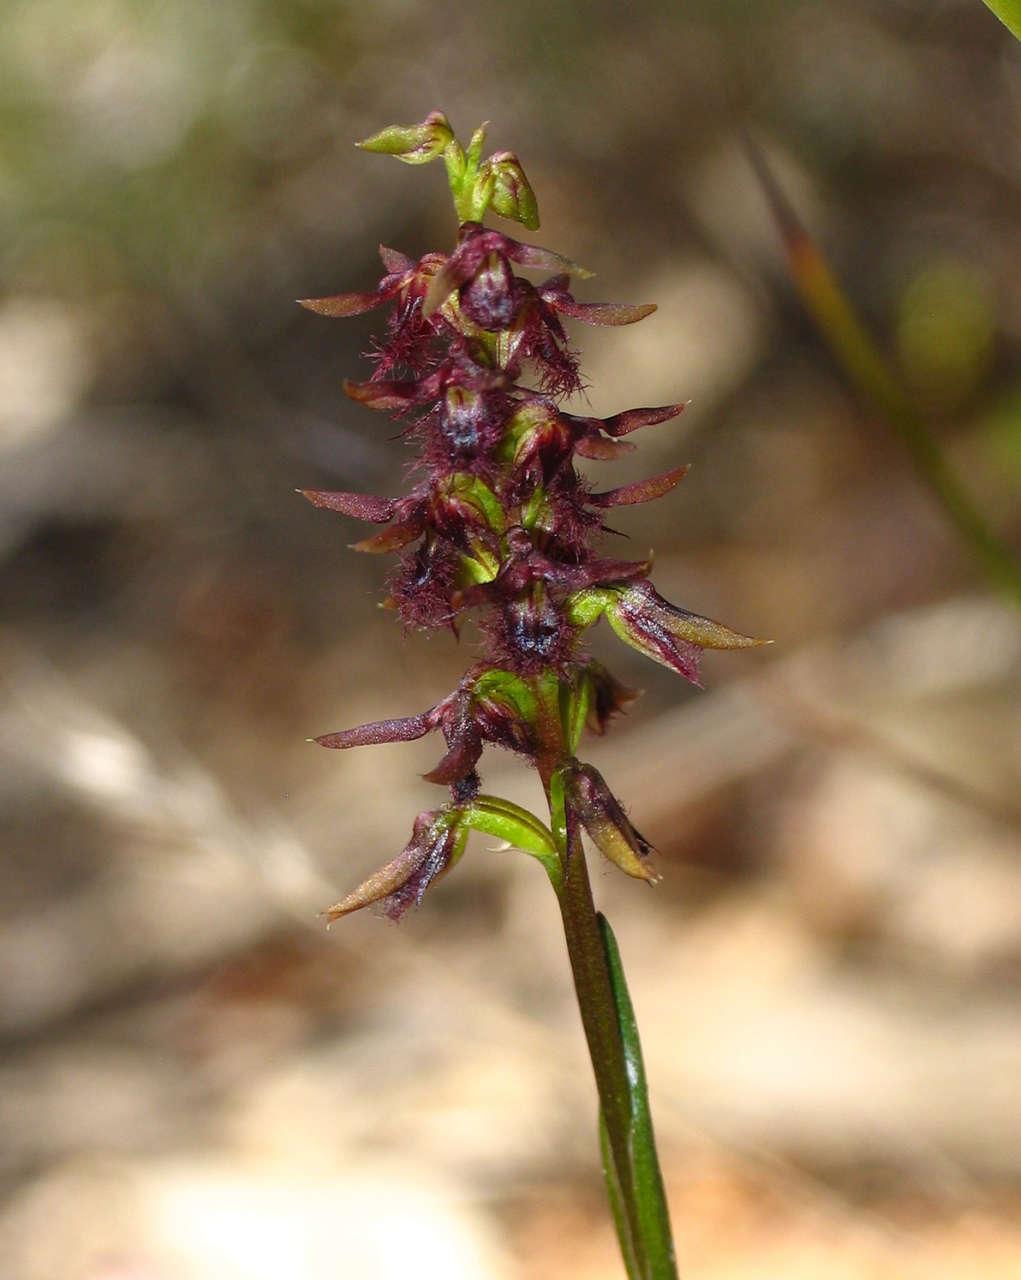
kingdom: Plantae
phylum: Tracheophyta
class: Liliopsida
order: Asparagales
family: Orchidaceae
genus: Genoplesium
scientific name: Genoplesium morrisii
